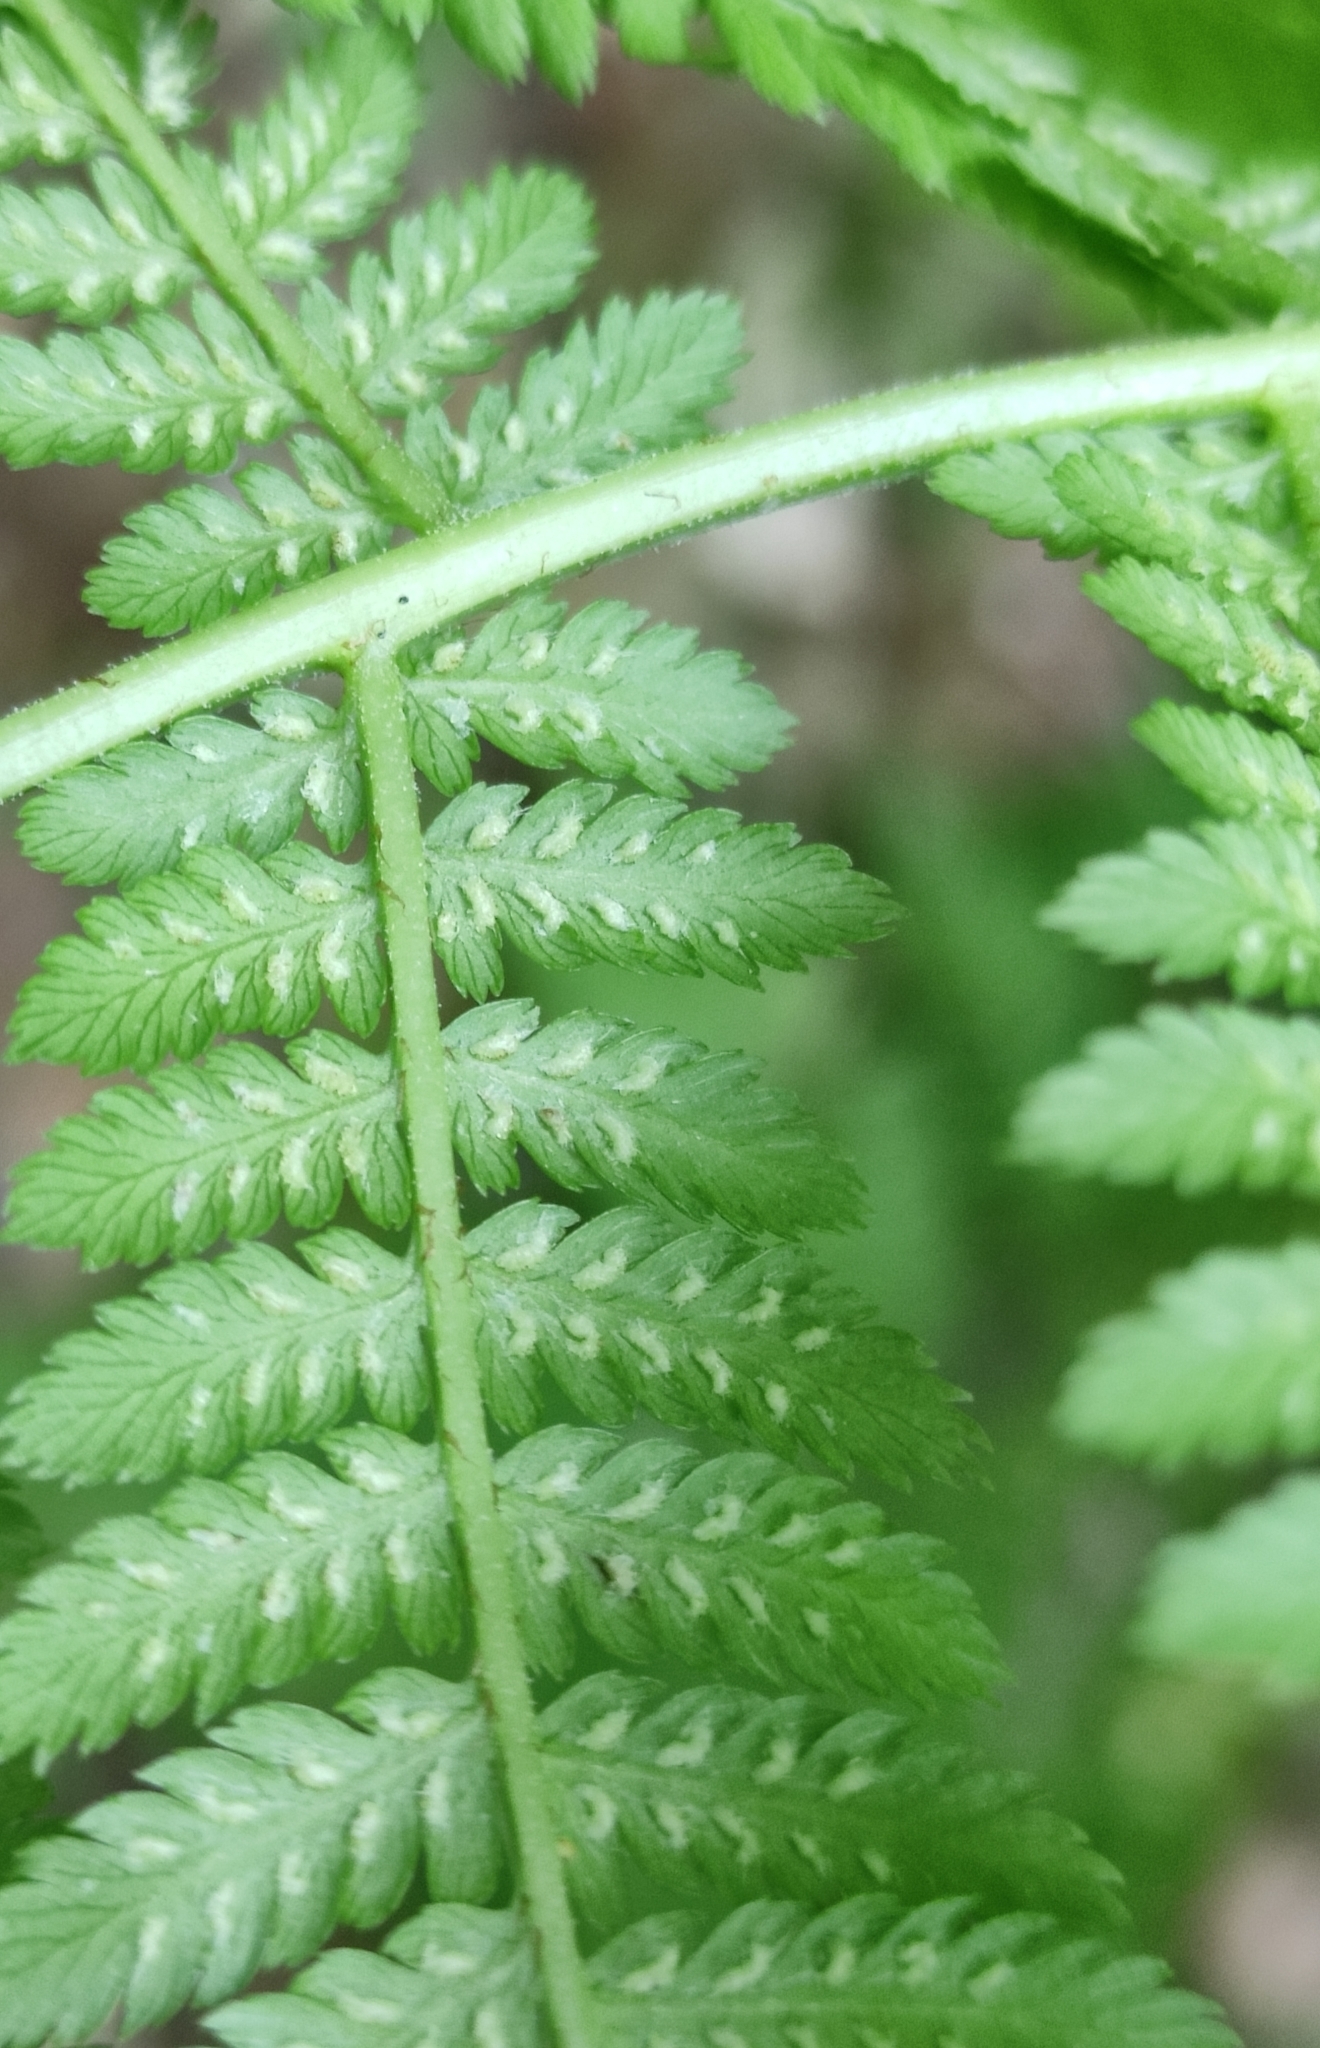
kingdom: Plantae
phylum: Tracheophyta
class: Polypodiopsida
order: Polypodiales
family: Athyriaceae
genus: Athyrium
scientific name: Athyrium filix-femina
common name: Lady fern
